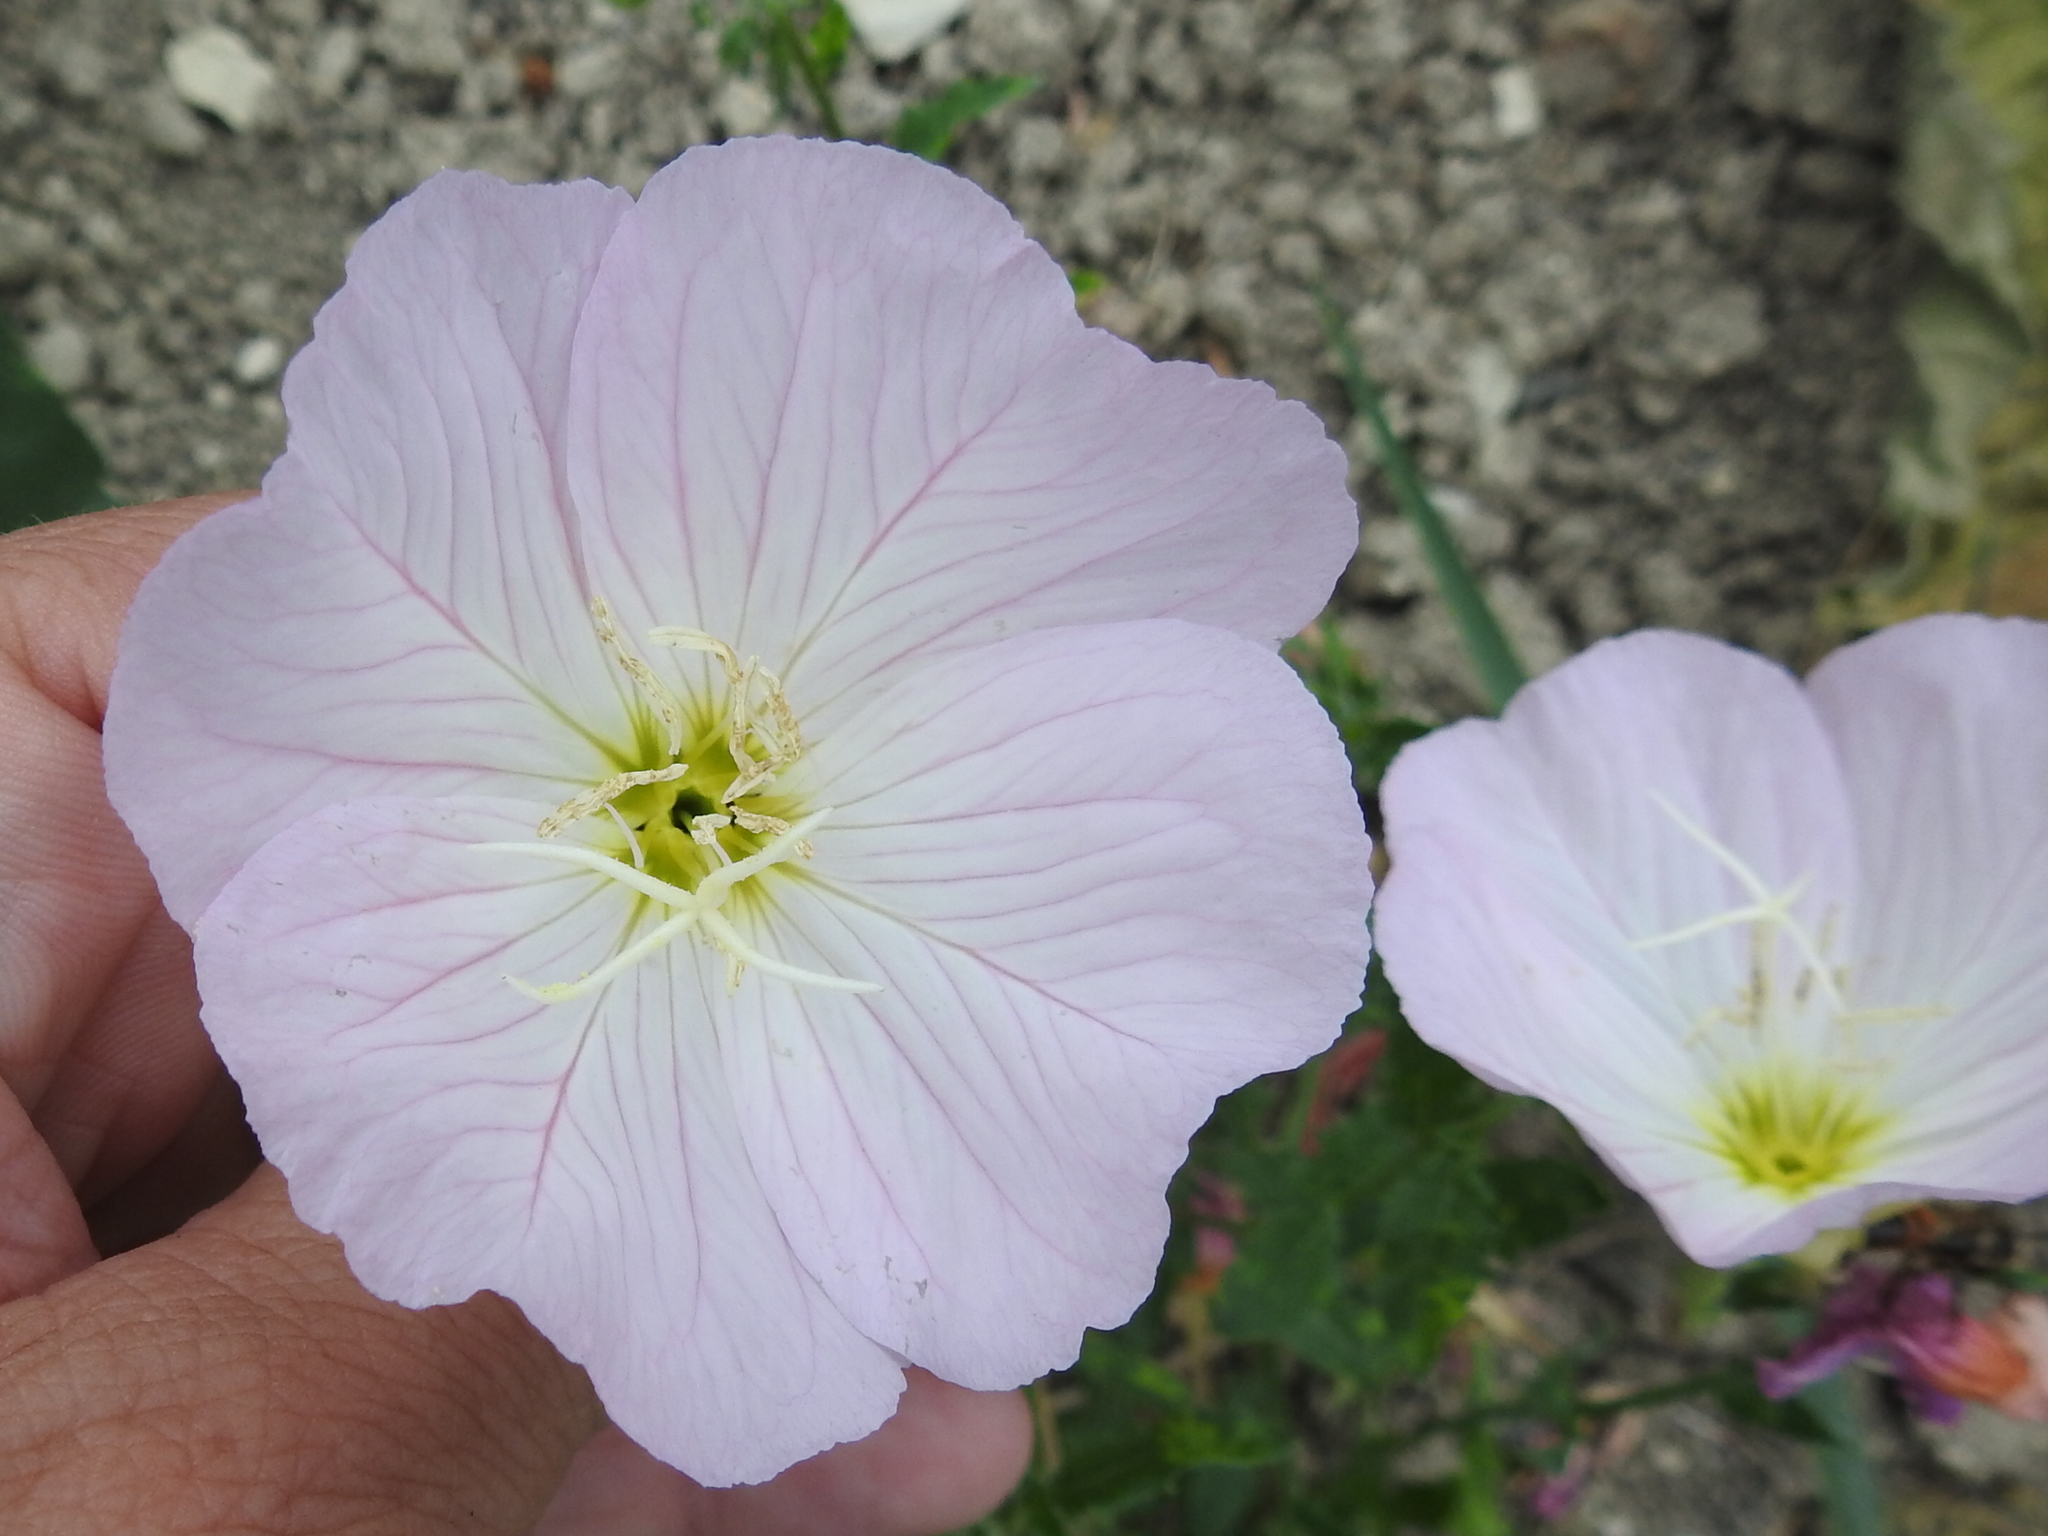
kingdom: Plantae
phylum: Tracheophyta
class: Magnoliopsida
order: Myrtales
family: Onagraceae
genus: Oenothera
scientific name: Oenothera speciosa
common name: White evening-primrose
